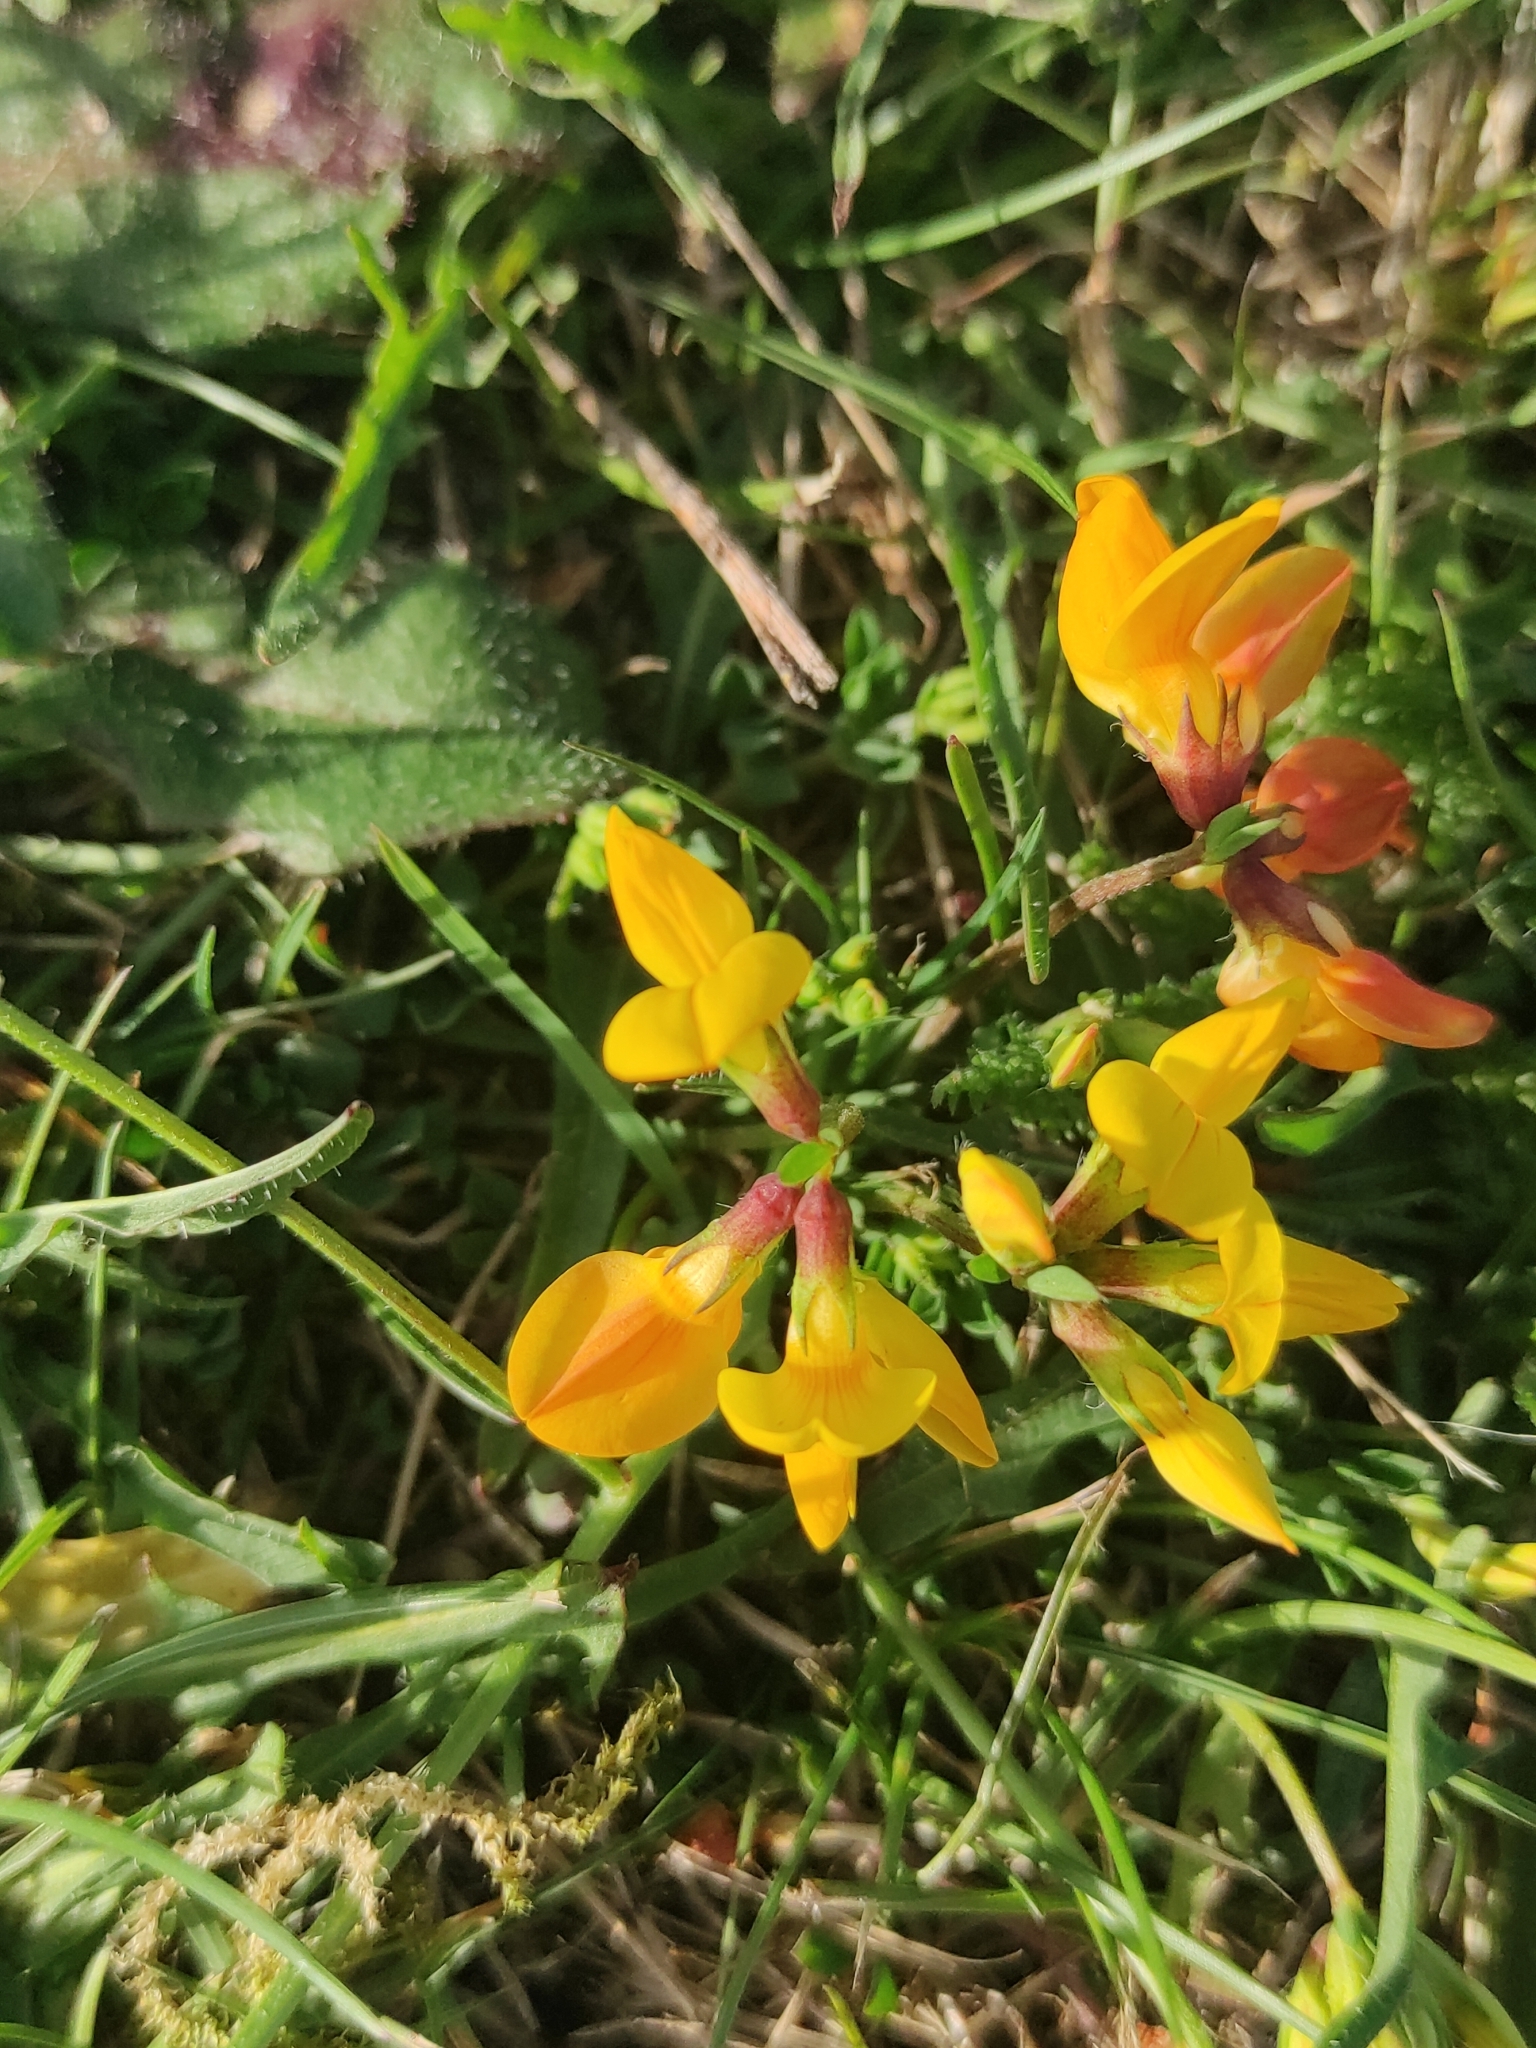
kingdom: Plantae
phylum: Tracheophyta
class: Magnoliopsida
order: Fabales
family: Fabaceae
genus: Lotus
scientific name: Lotus corniculatus
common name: Common bird's-foot-trefoil
